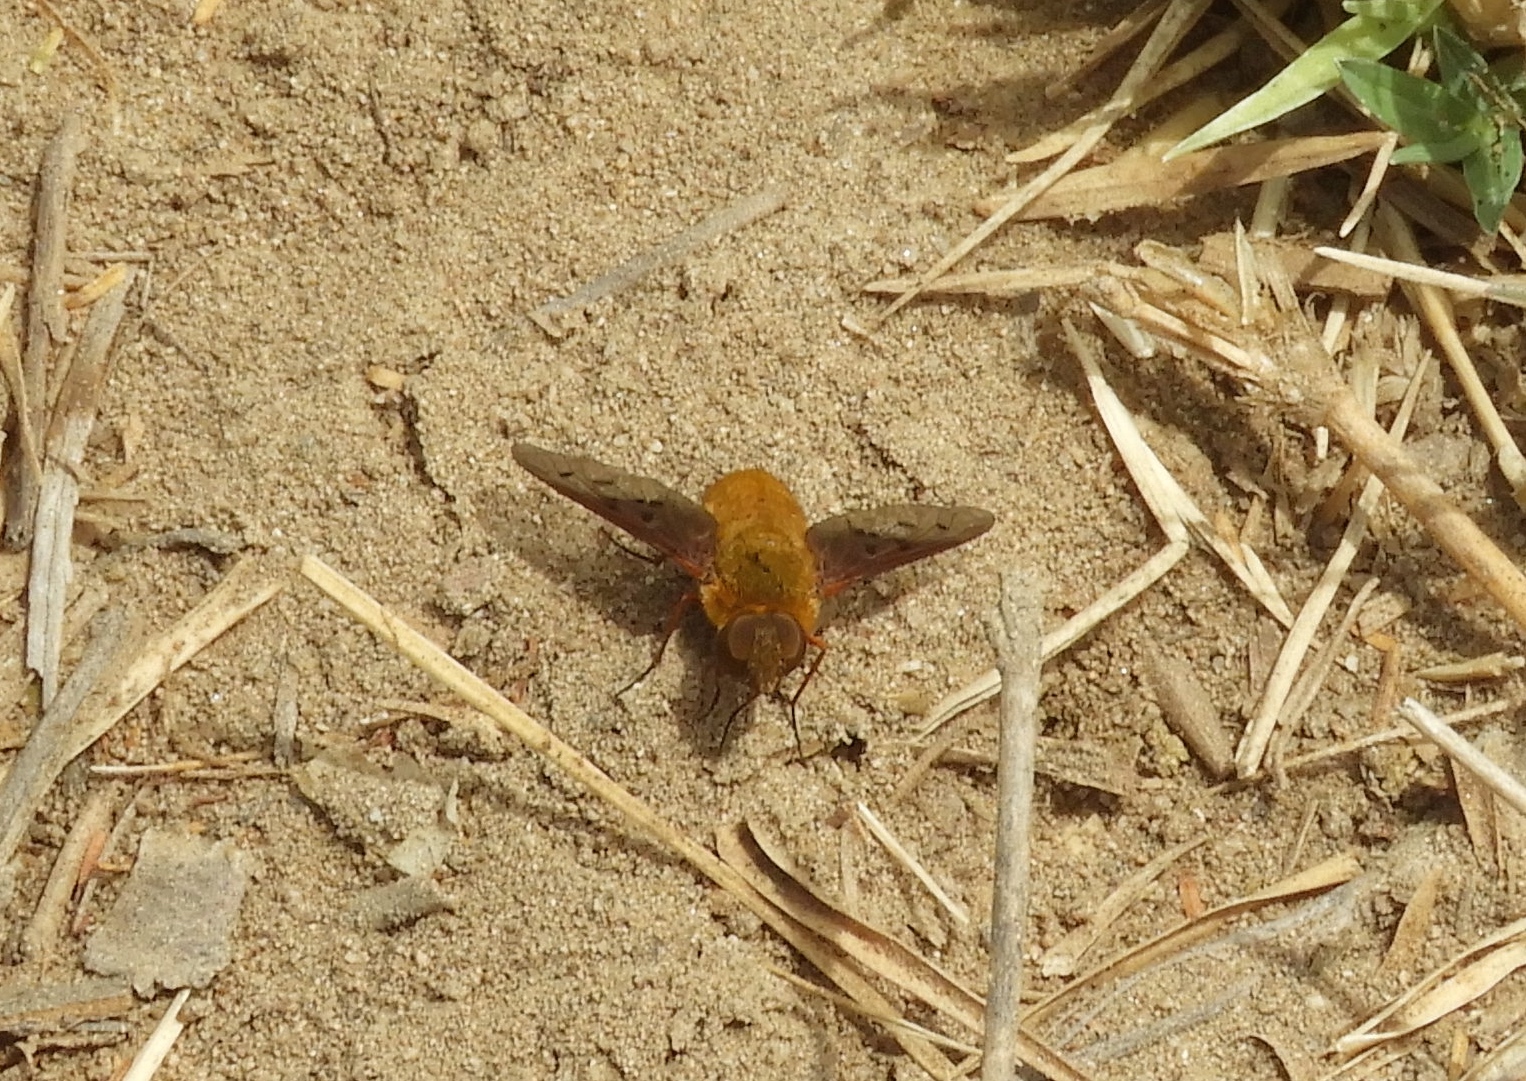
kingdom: Animalia
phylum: Arthropoda
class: Insecta
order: Diptera
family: Bombyliidae
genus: Chrysanthrax
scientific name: Chrysanthrax edititius
